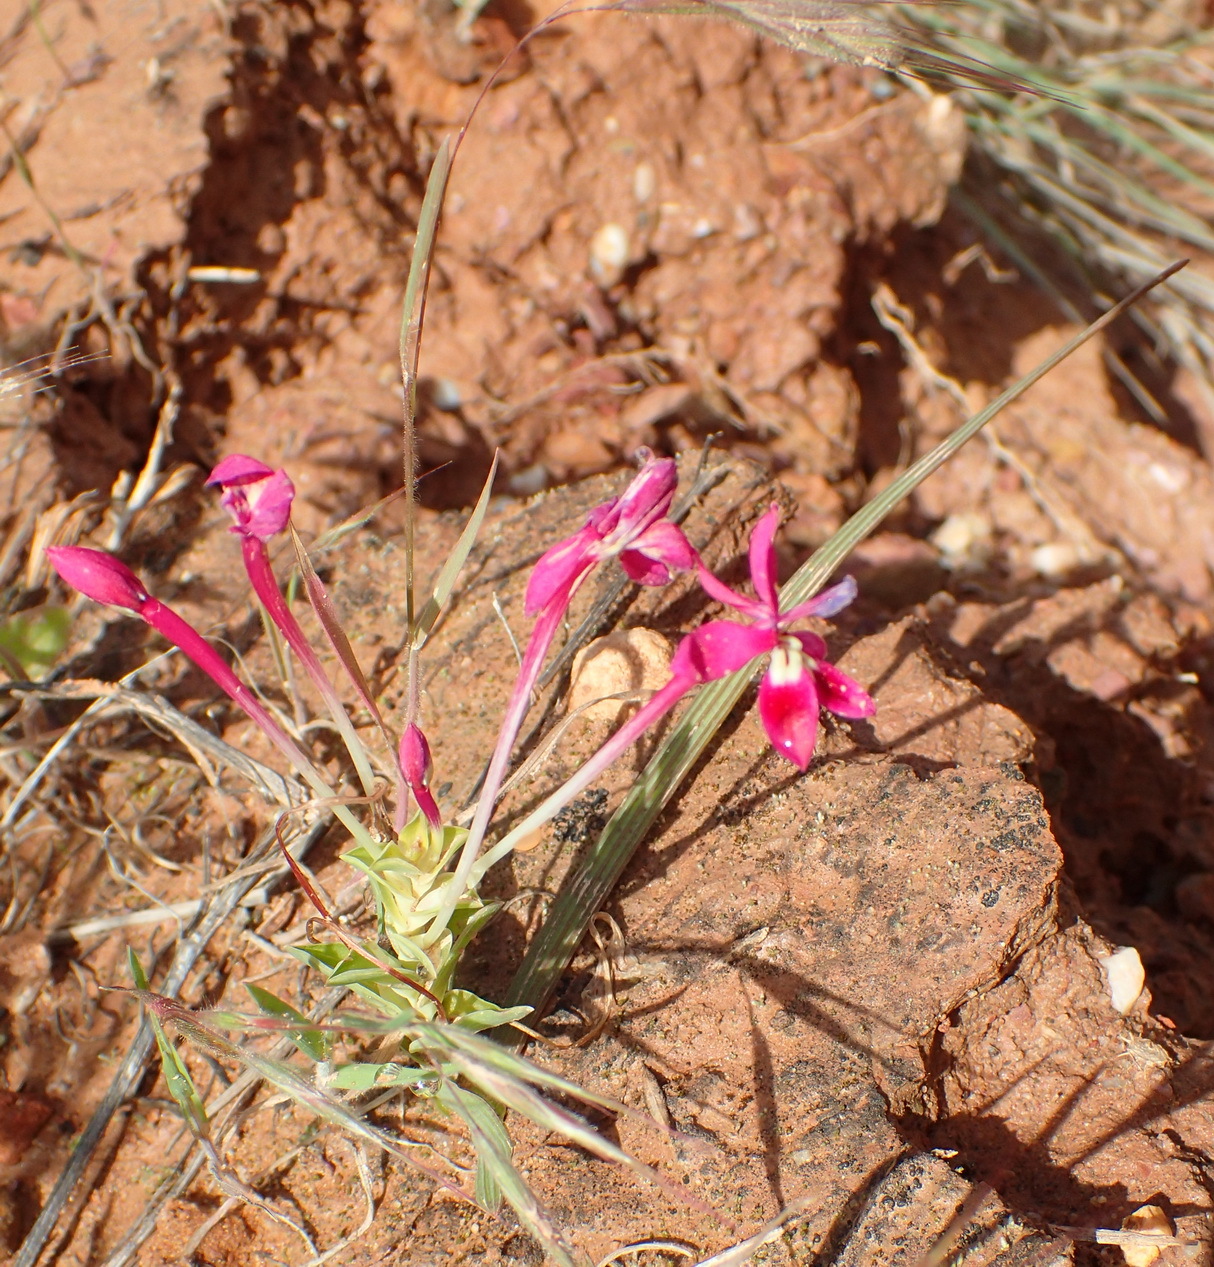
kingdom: Plantae
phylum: Tracheophyta
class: Liliopsida
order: Asparagales
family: Iridaceae
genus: Lapeirousia
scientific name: Lapeirousia silenoides
